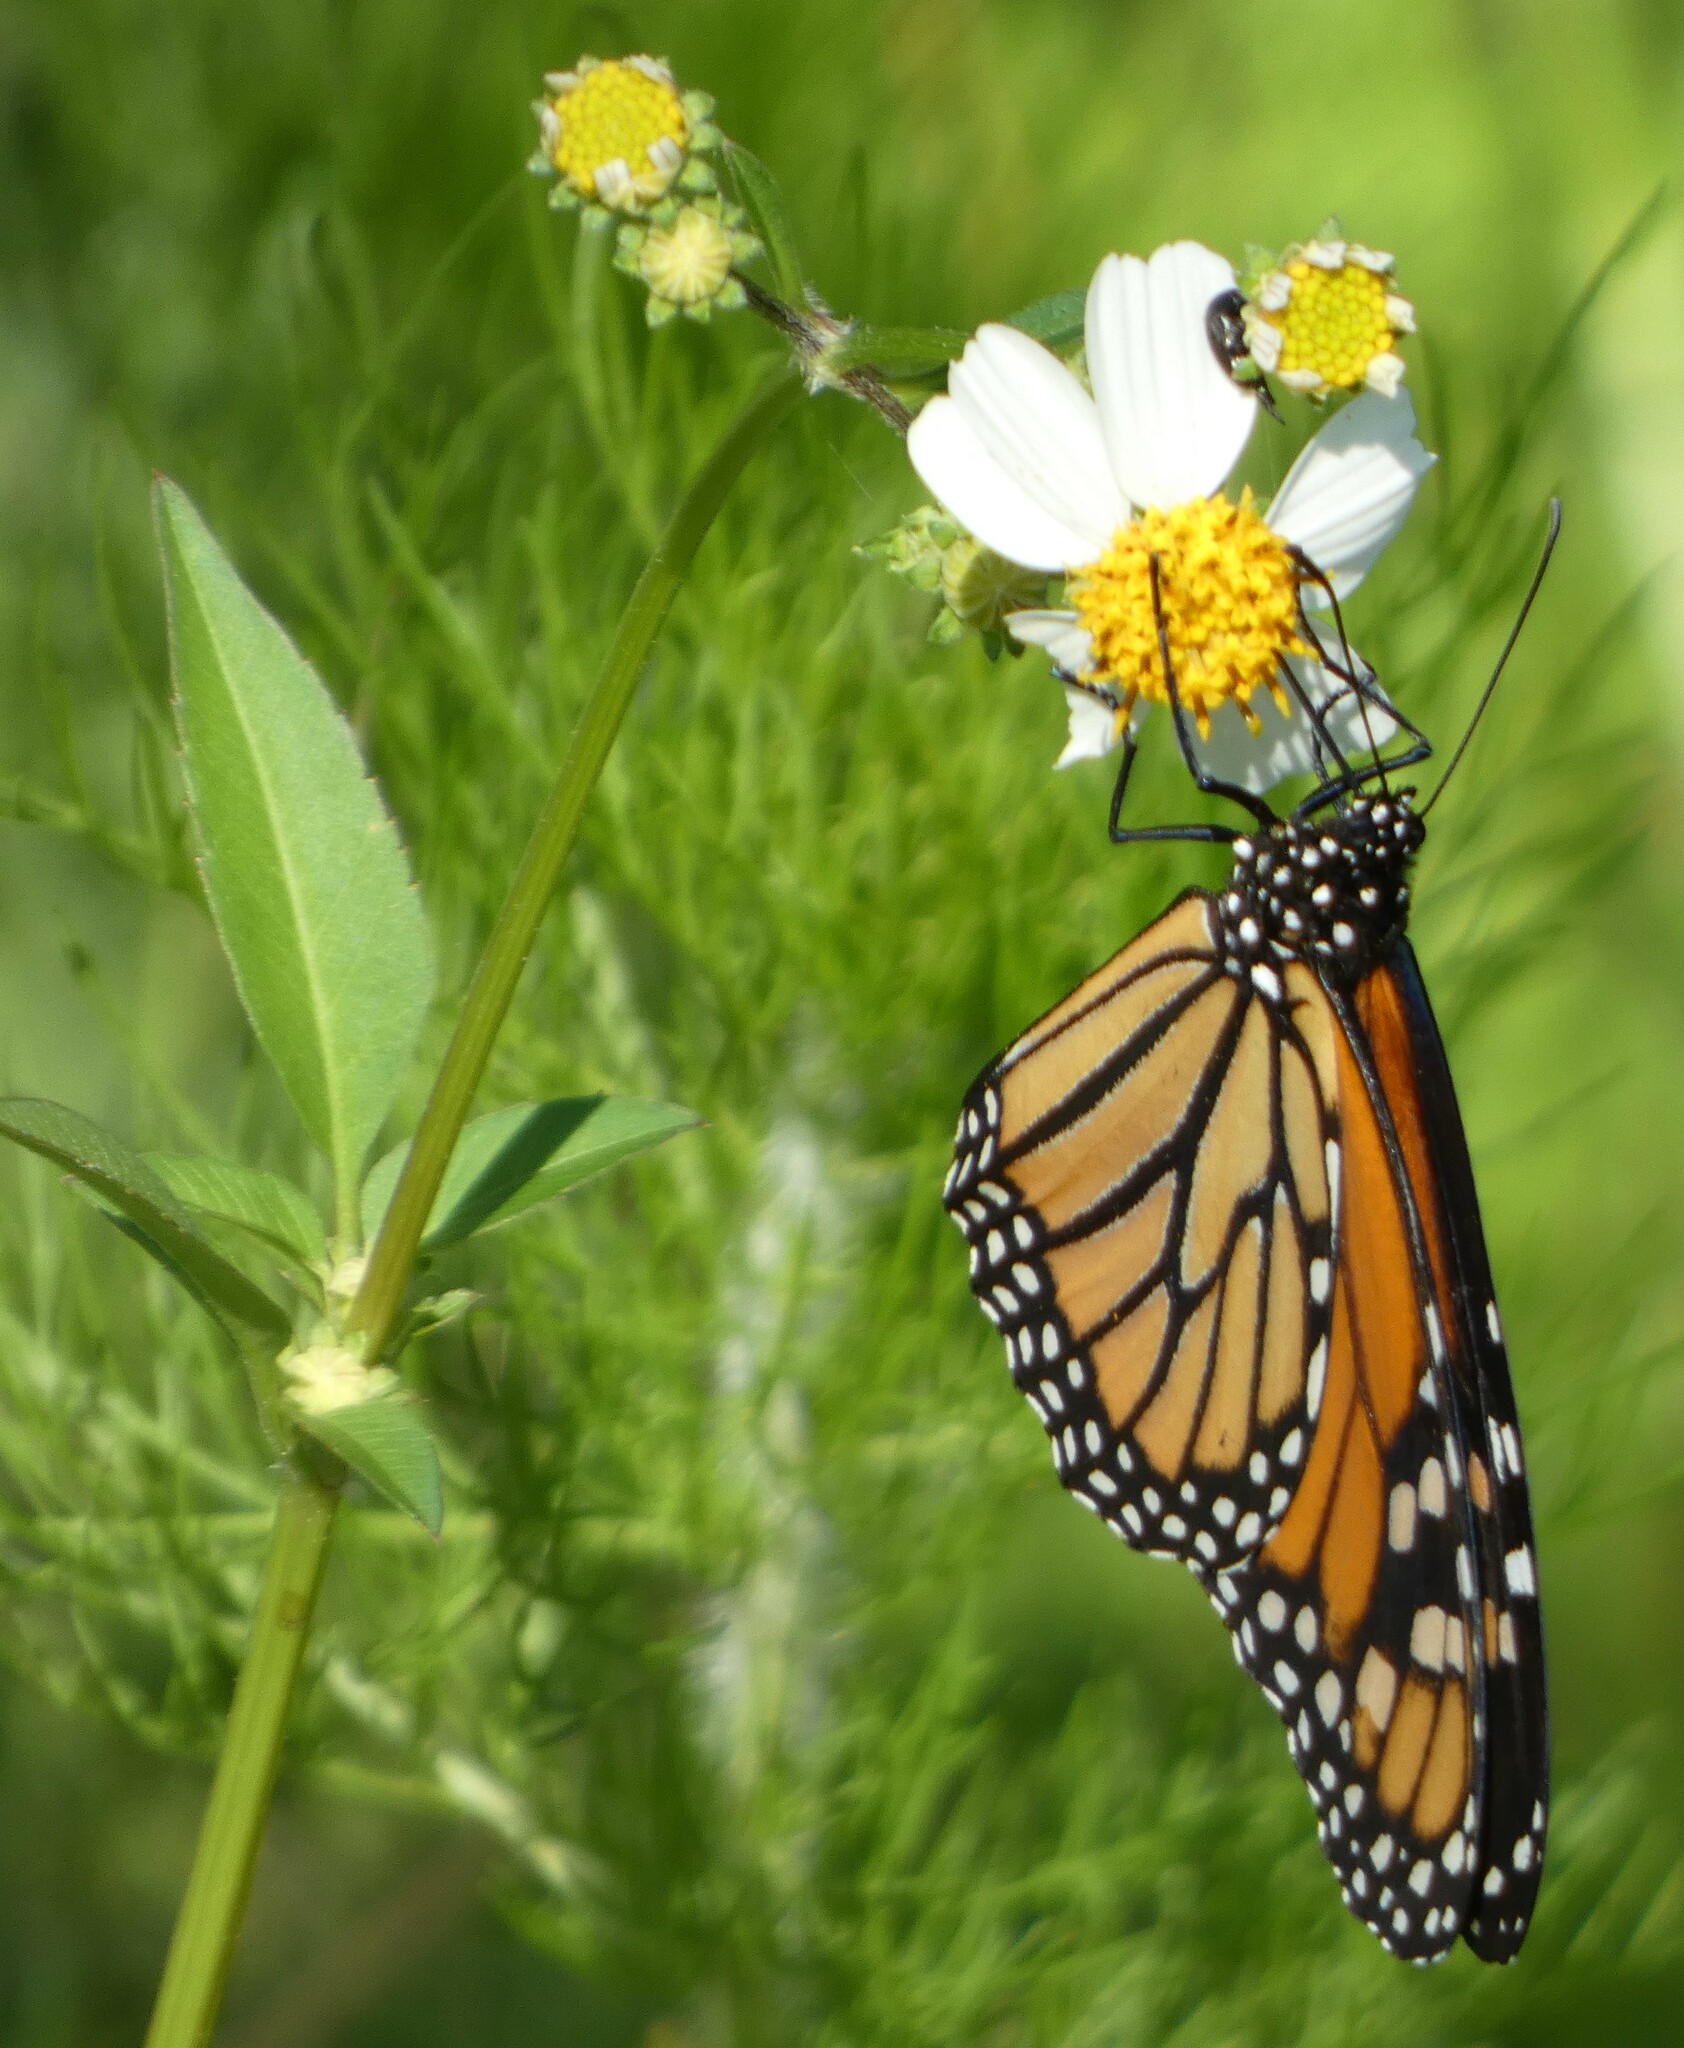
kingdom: Animalia
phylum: Arthropoda
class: Insecta
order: Lepidoptera
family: Nymphalidae
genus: Danaus
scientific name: Danaus plexippus
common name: Monarch
